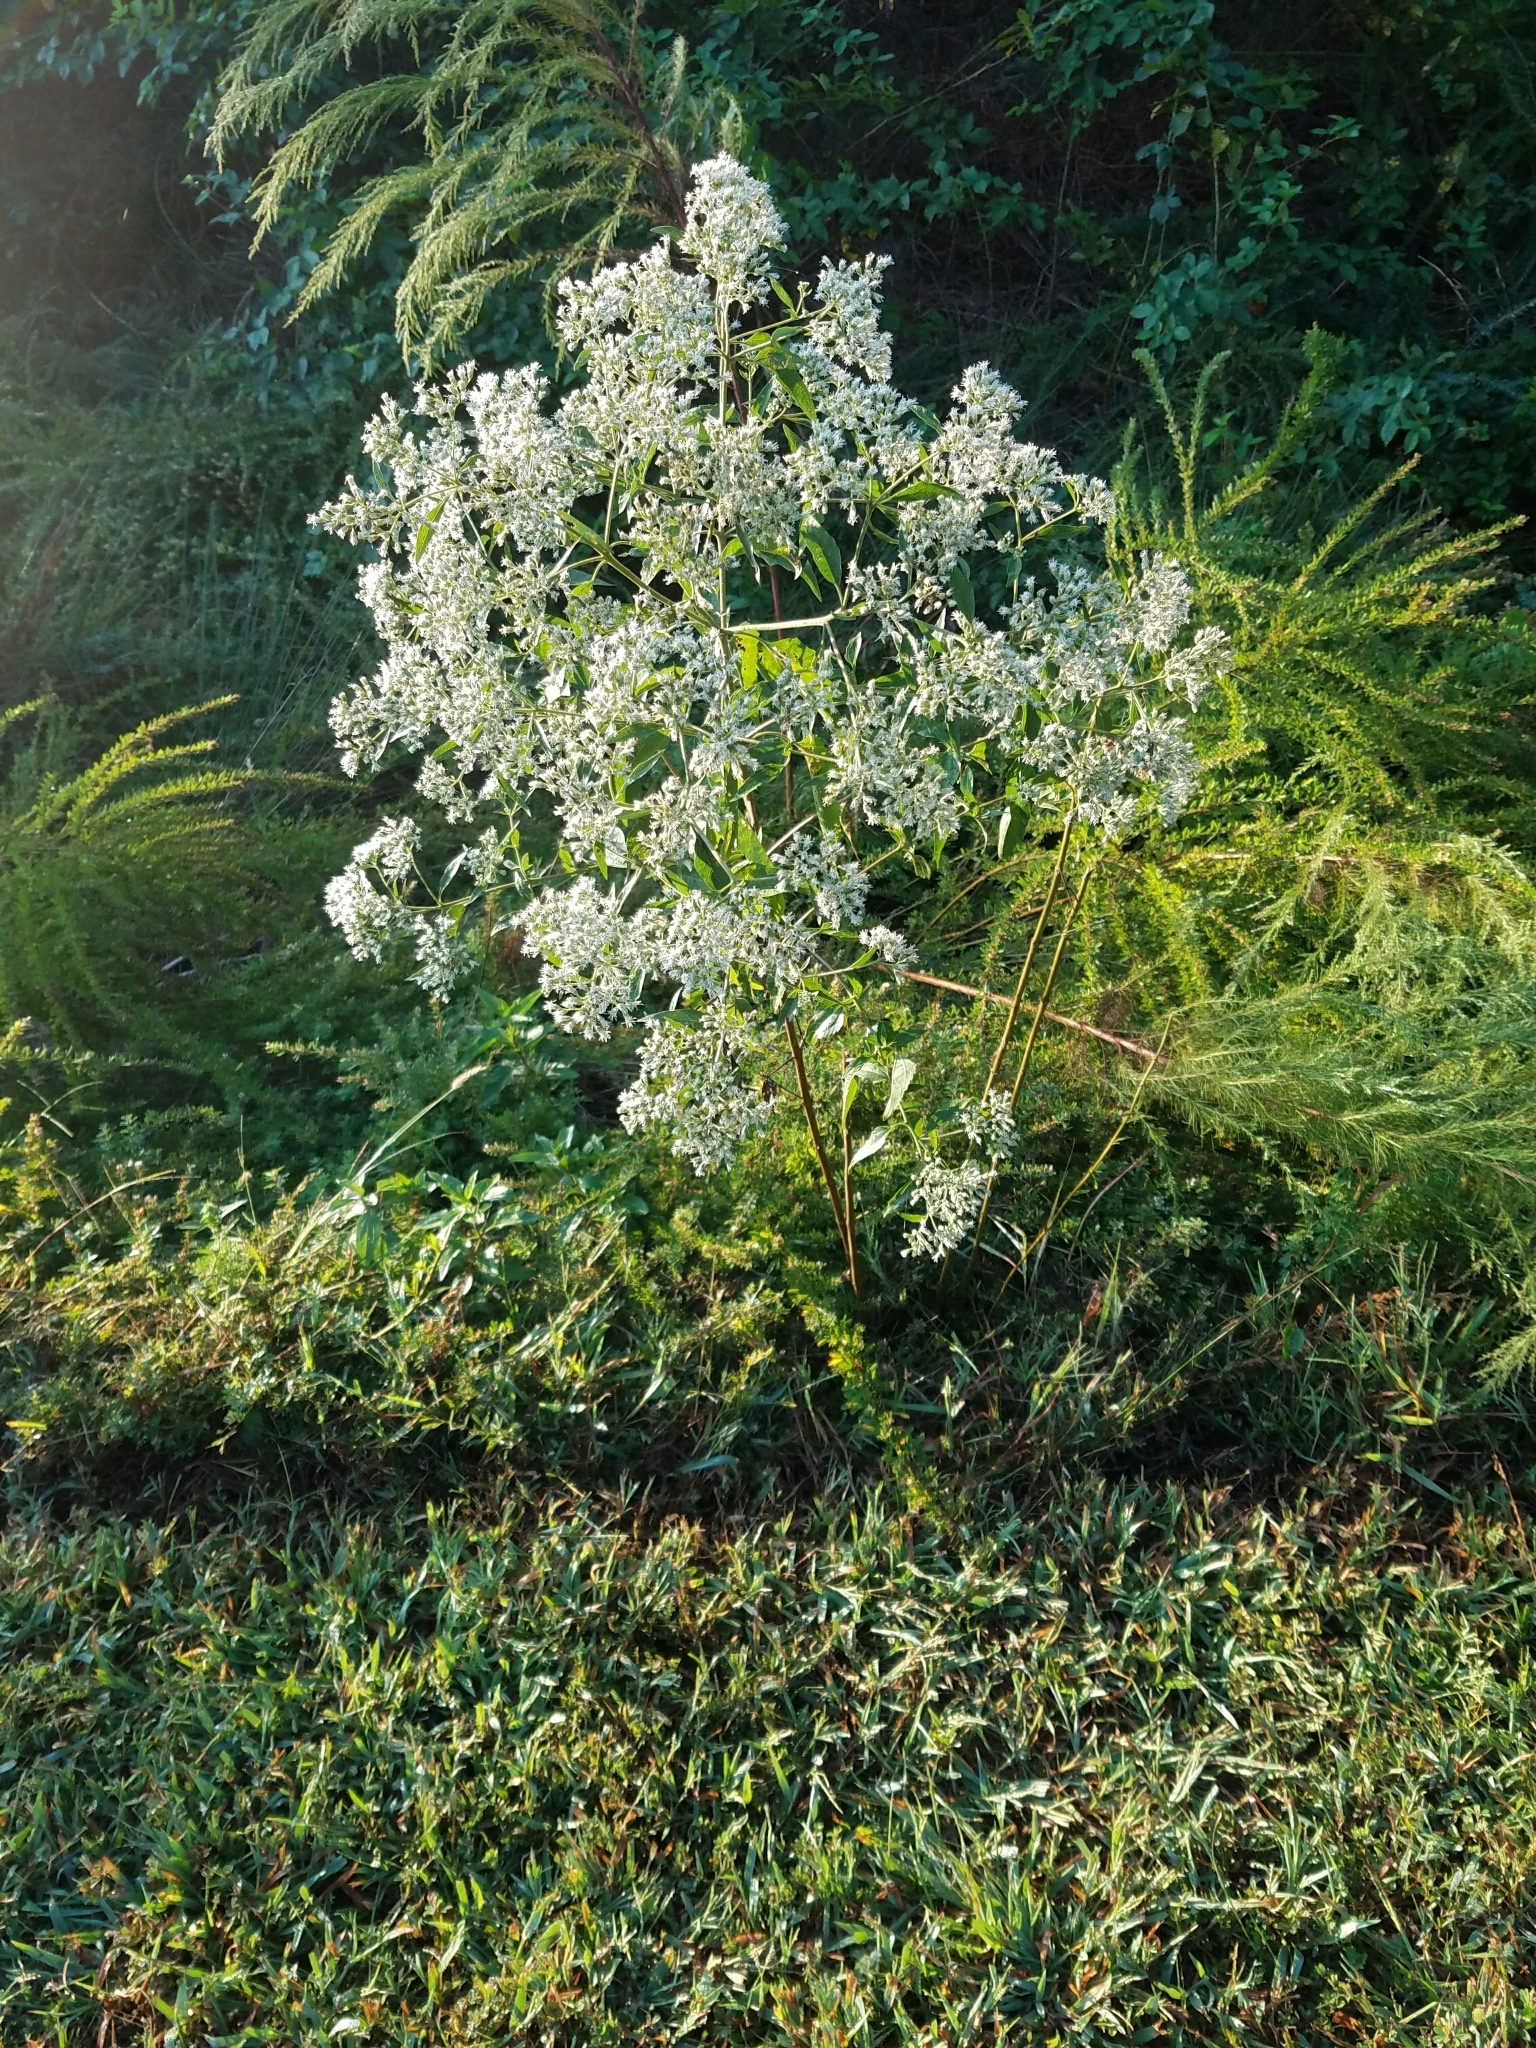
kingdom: Plantae
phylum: Tracheophyta
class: Magnoliopsida
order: Asterales
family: Asteraceae
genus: Eupatorium
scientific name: Eupatorium serotinum
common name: Late boneset
